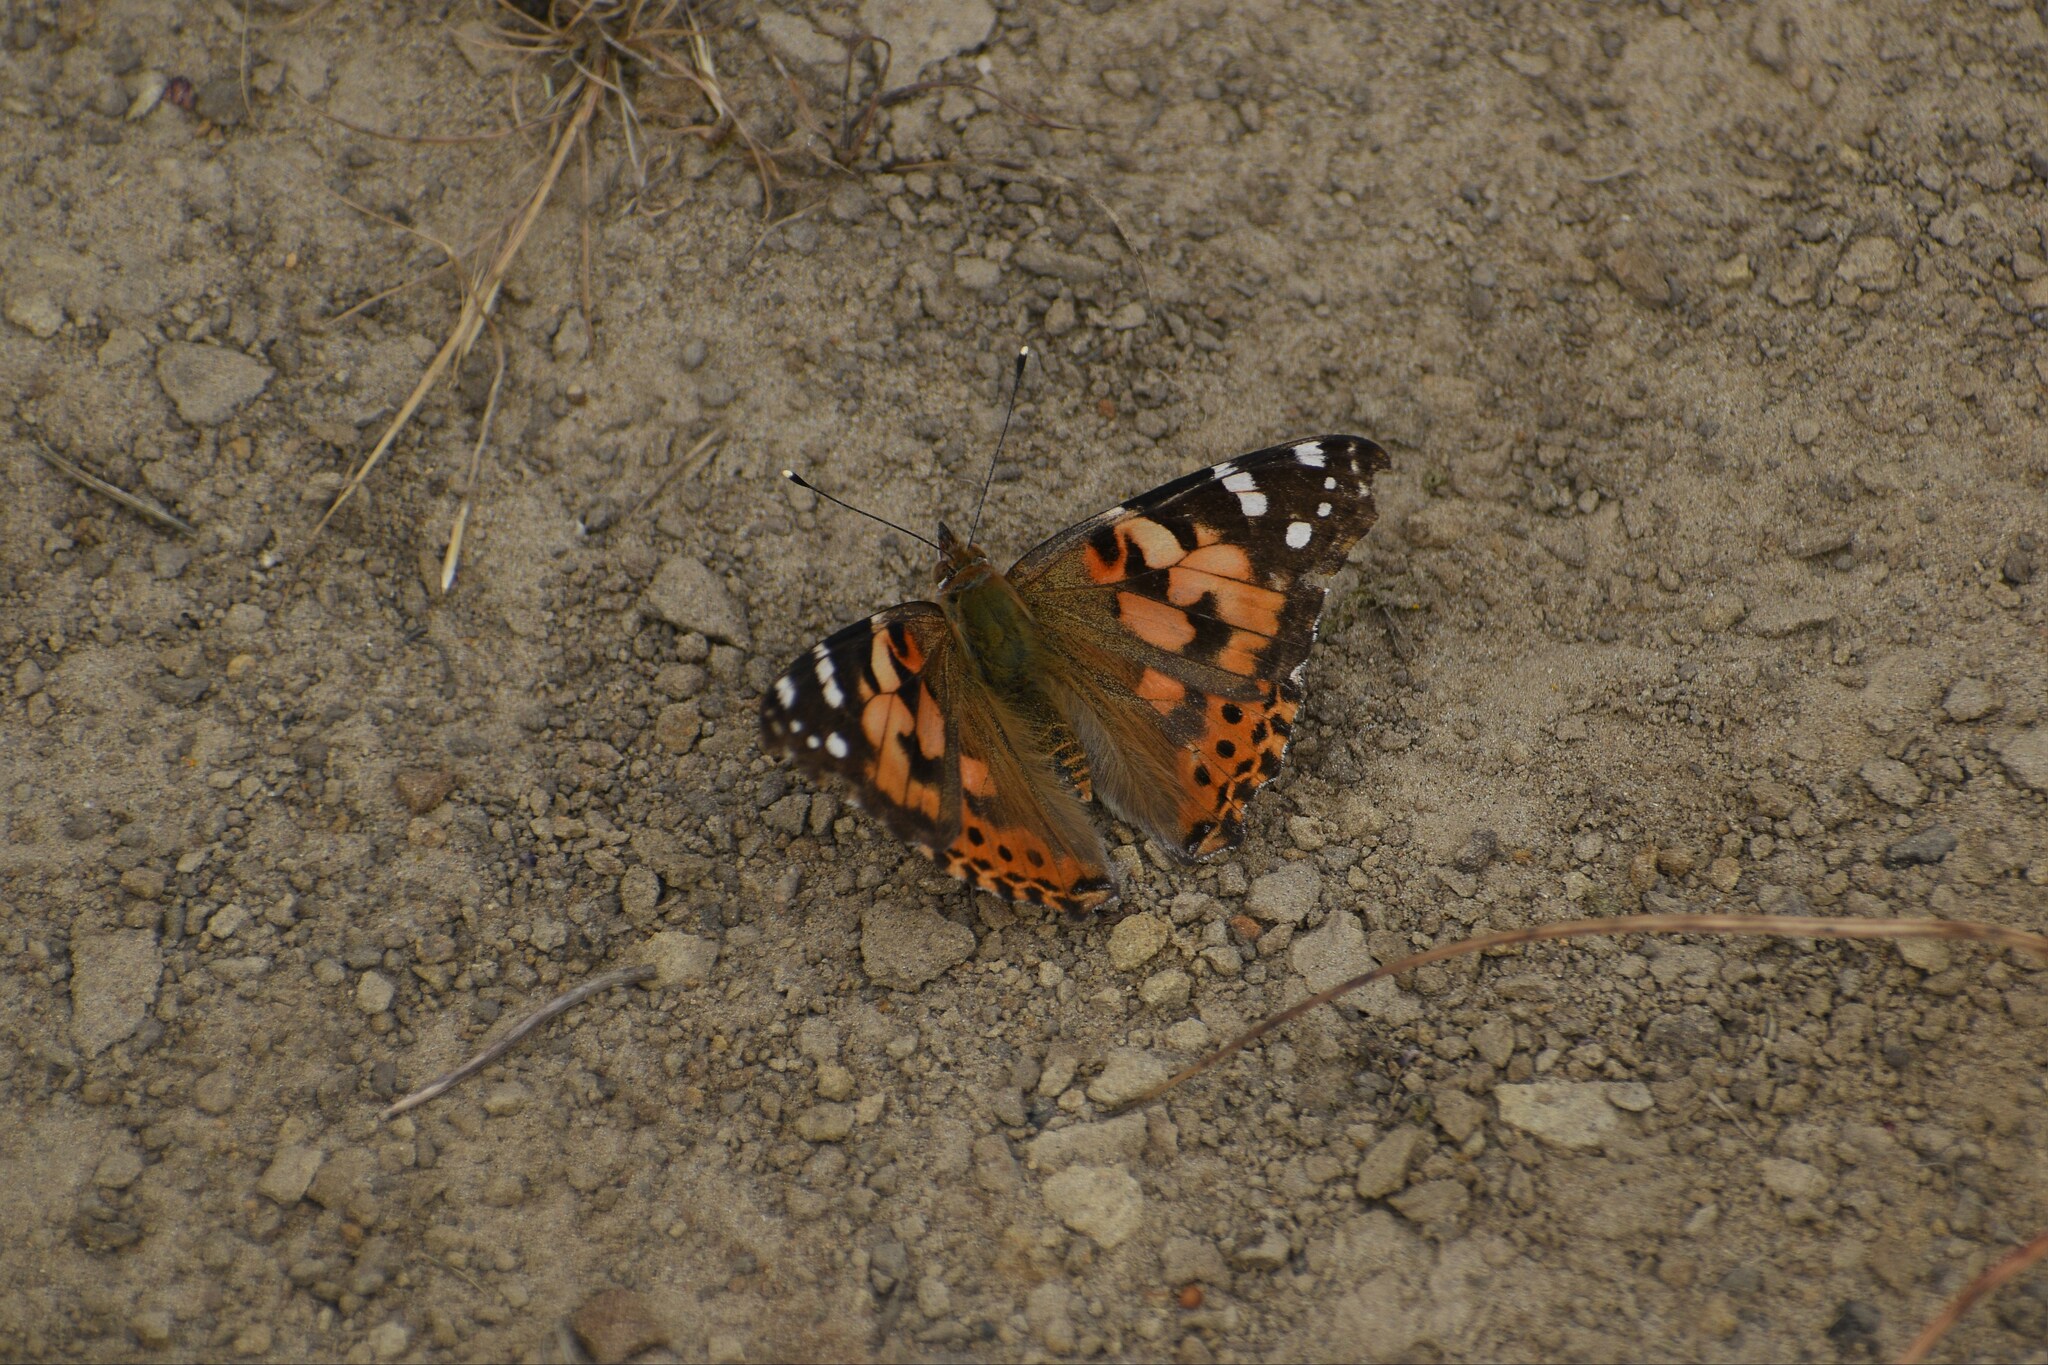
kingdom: Animalia
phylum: Arthropoda
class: Insecta
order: Lepidoptera
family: Nymphalidae
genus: Vanessa
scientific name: Vanessa cardui
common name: Painted lady
